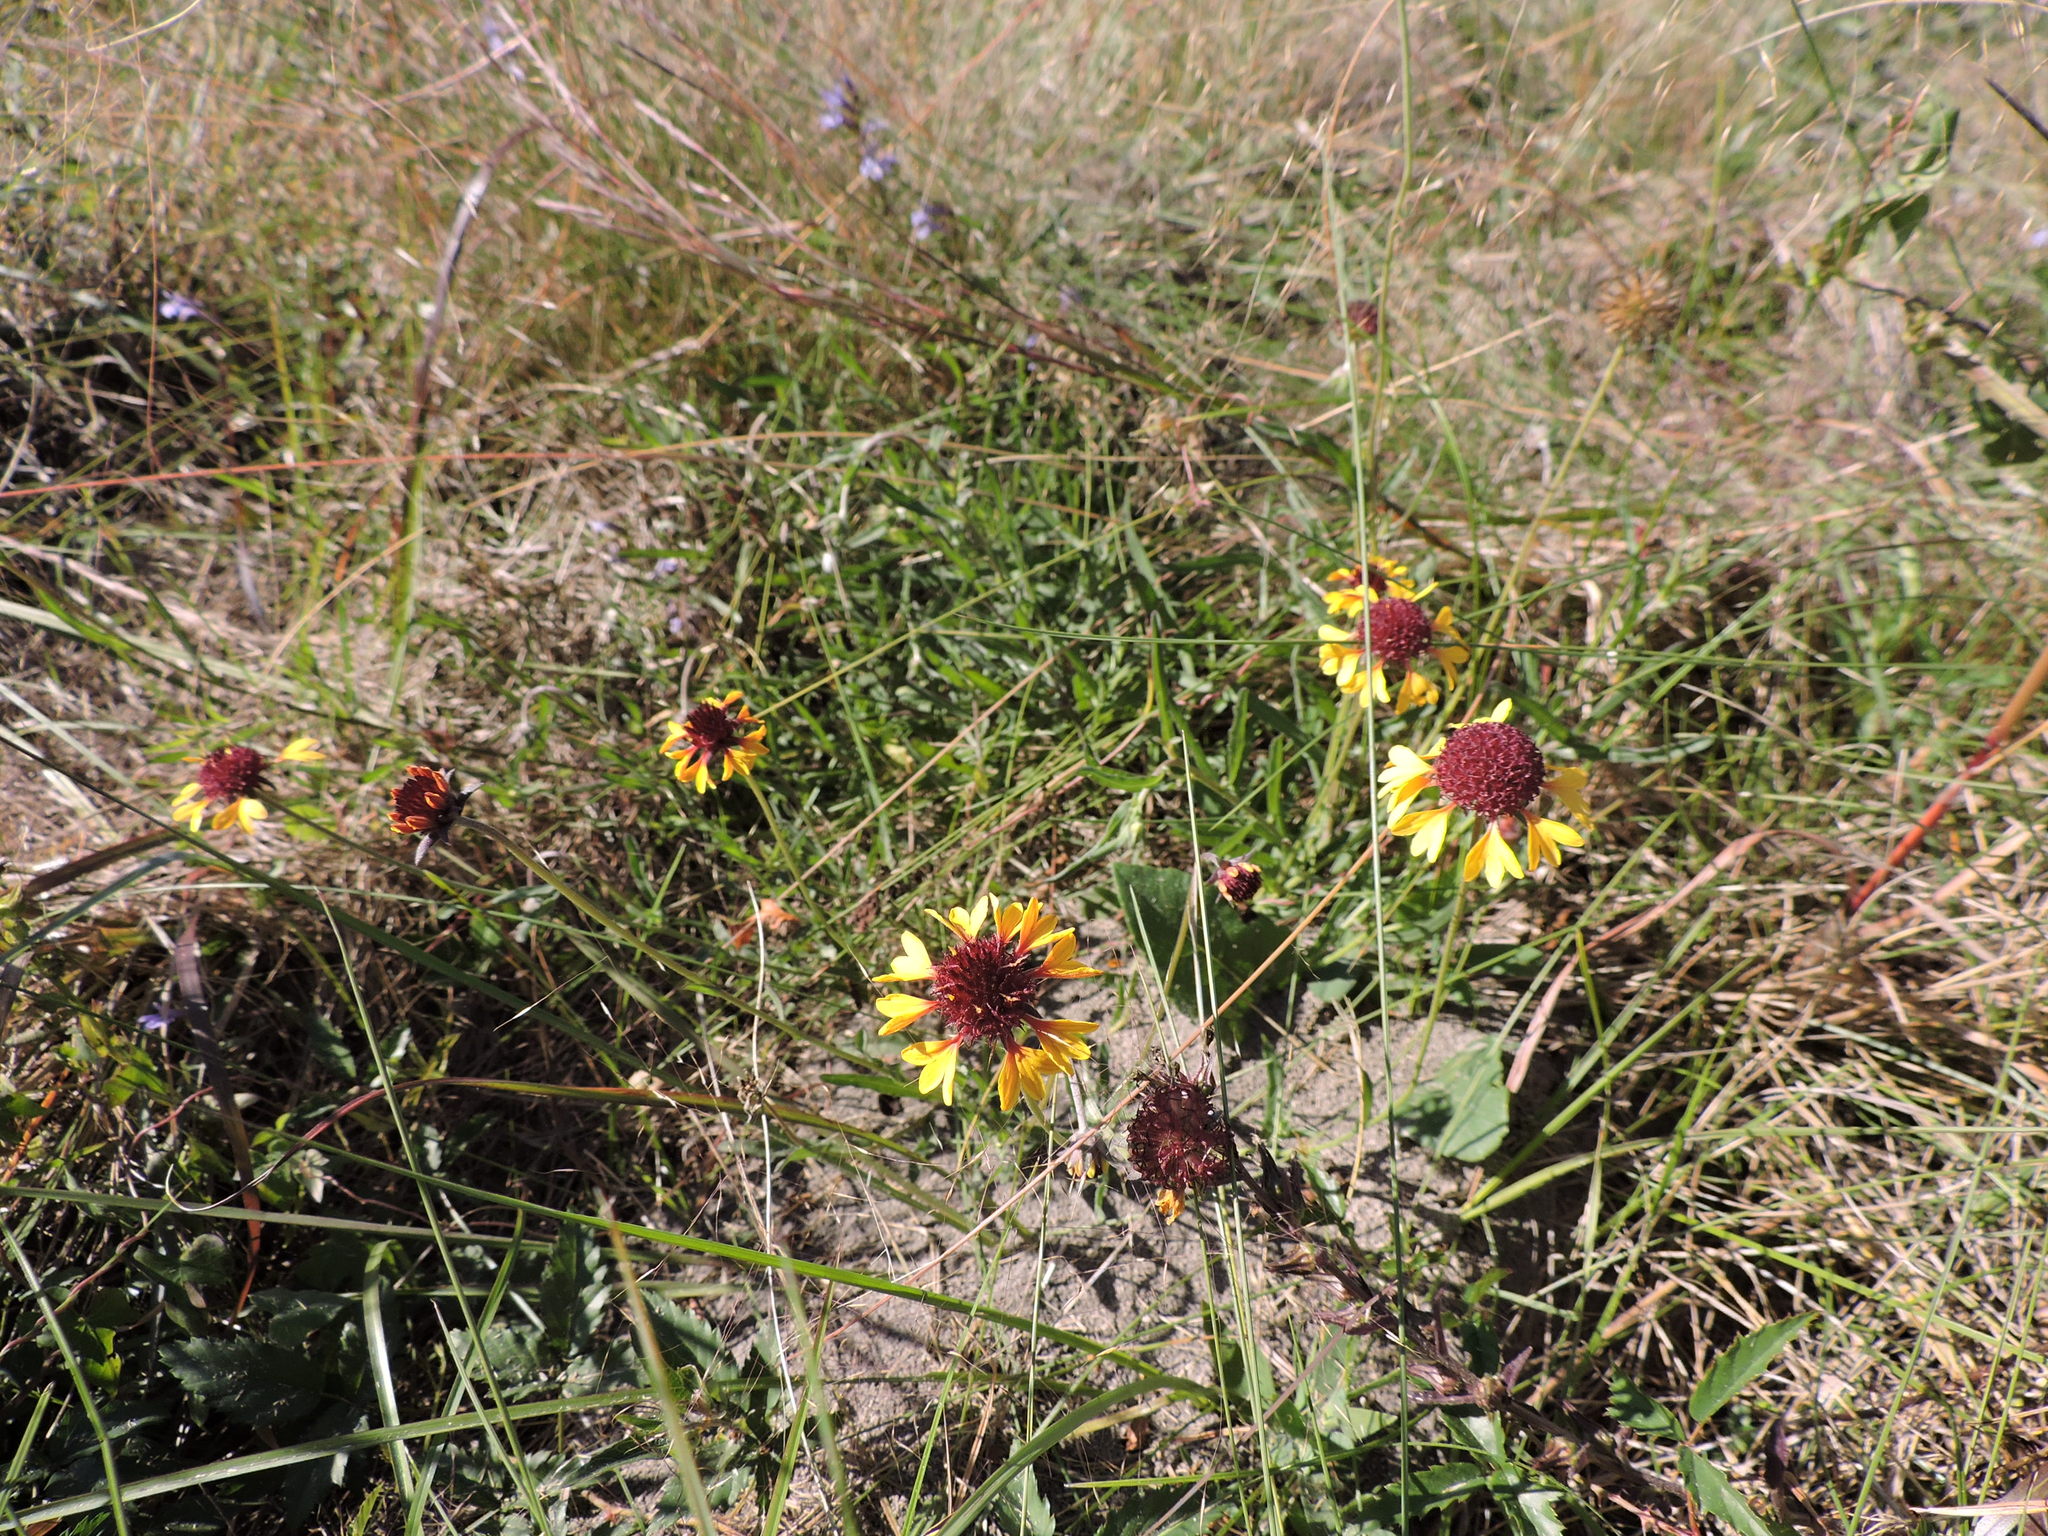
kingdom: Plantae
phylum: Tracheophyta
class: Magnoliopsida
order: Asterales
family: Asteraceae
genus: Gaillardia
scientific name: Gaillardia aestivalis
